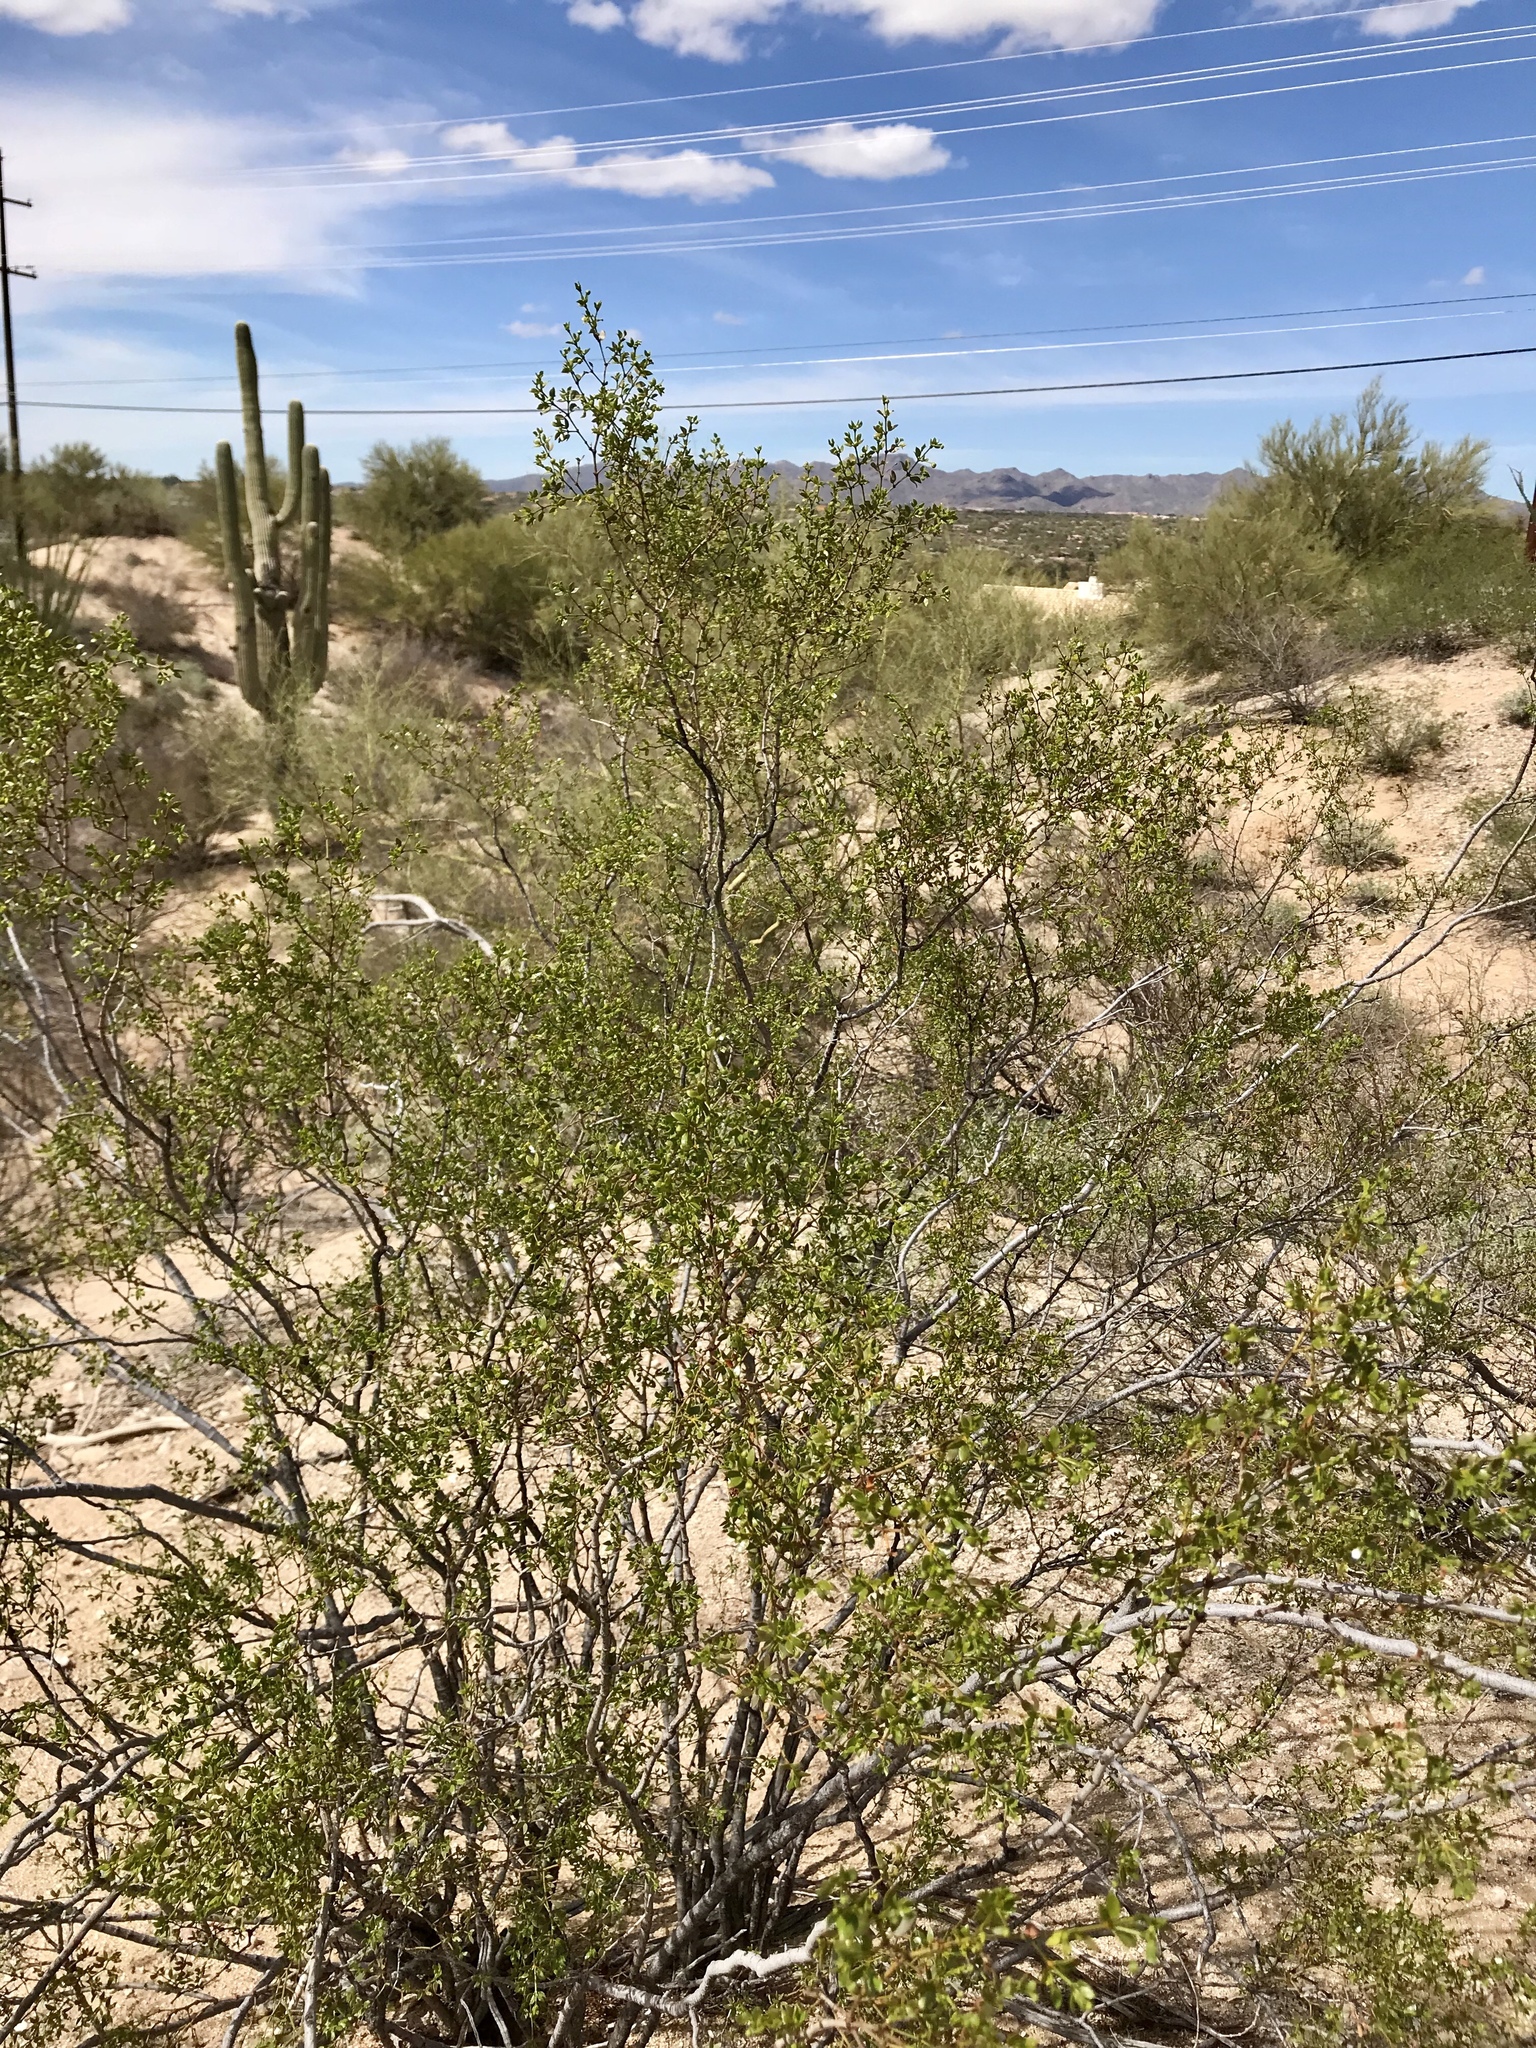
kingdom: Plantae
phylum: Tracheophyta
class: Magnoliopsida
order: Zygophyllales
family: Zygophyllaceae
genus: Larrea
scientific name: Larrea tridentata
